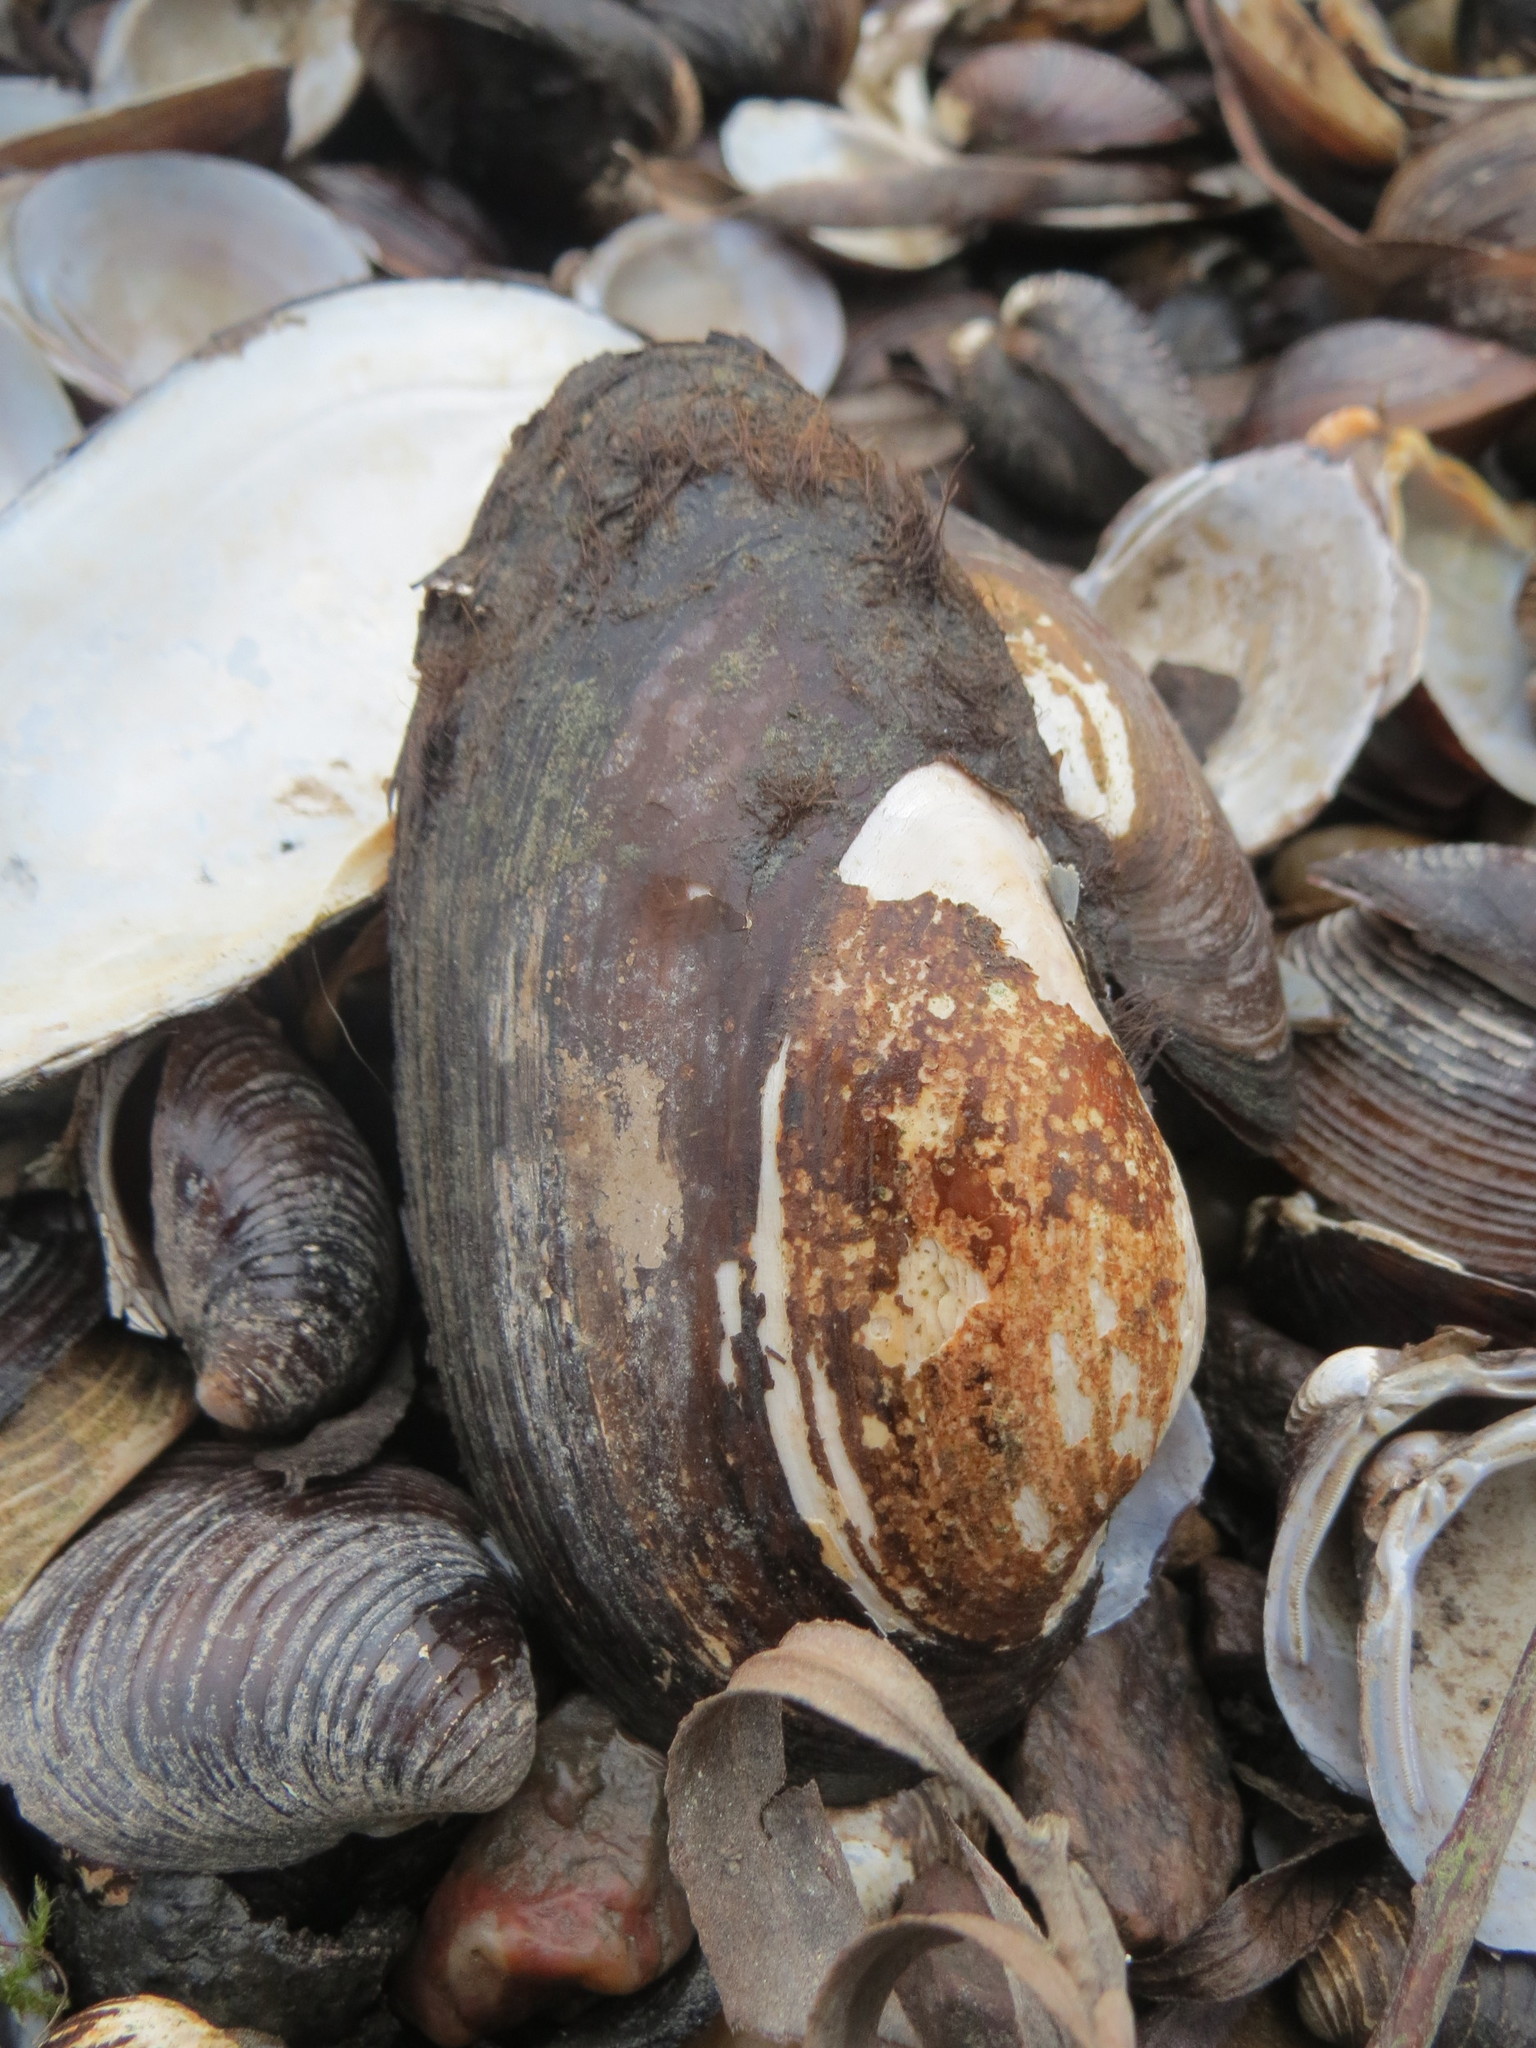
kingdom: Animalia
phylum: Mollusca
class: Bivalvia
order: Unionida
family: Unionidae
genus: Unio
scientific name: Unio tumidus
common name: Swollen river mussel
